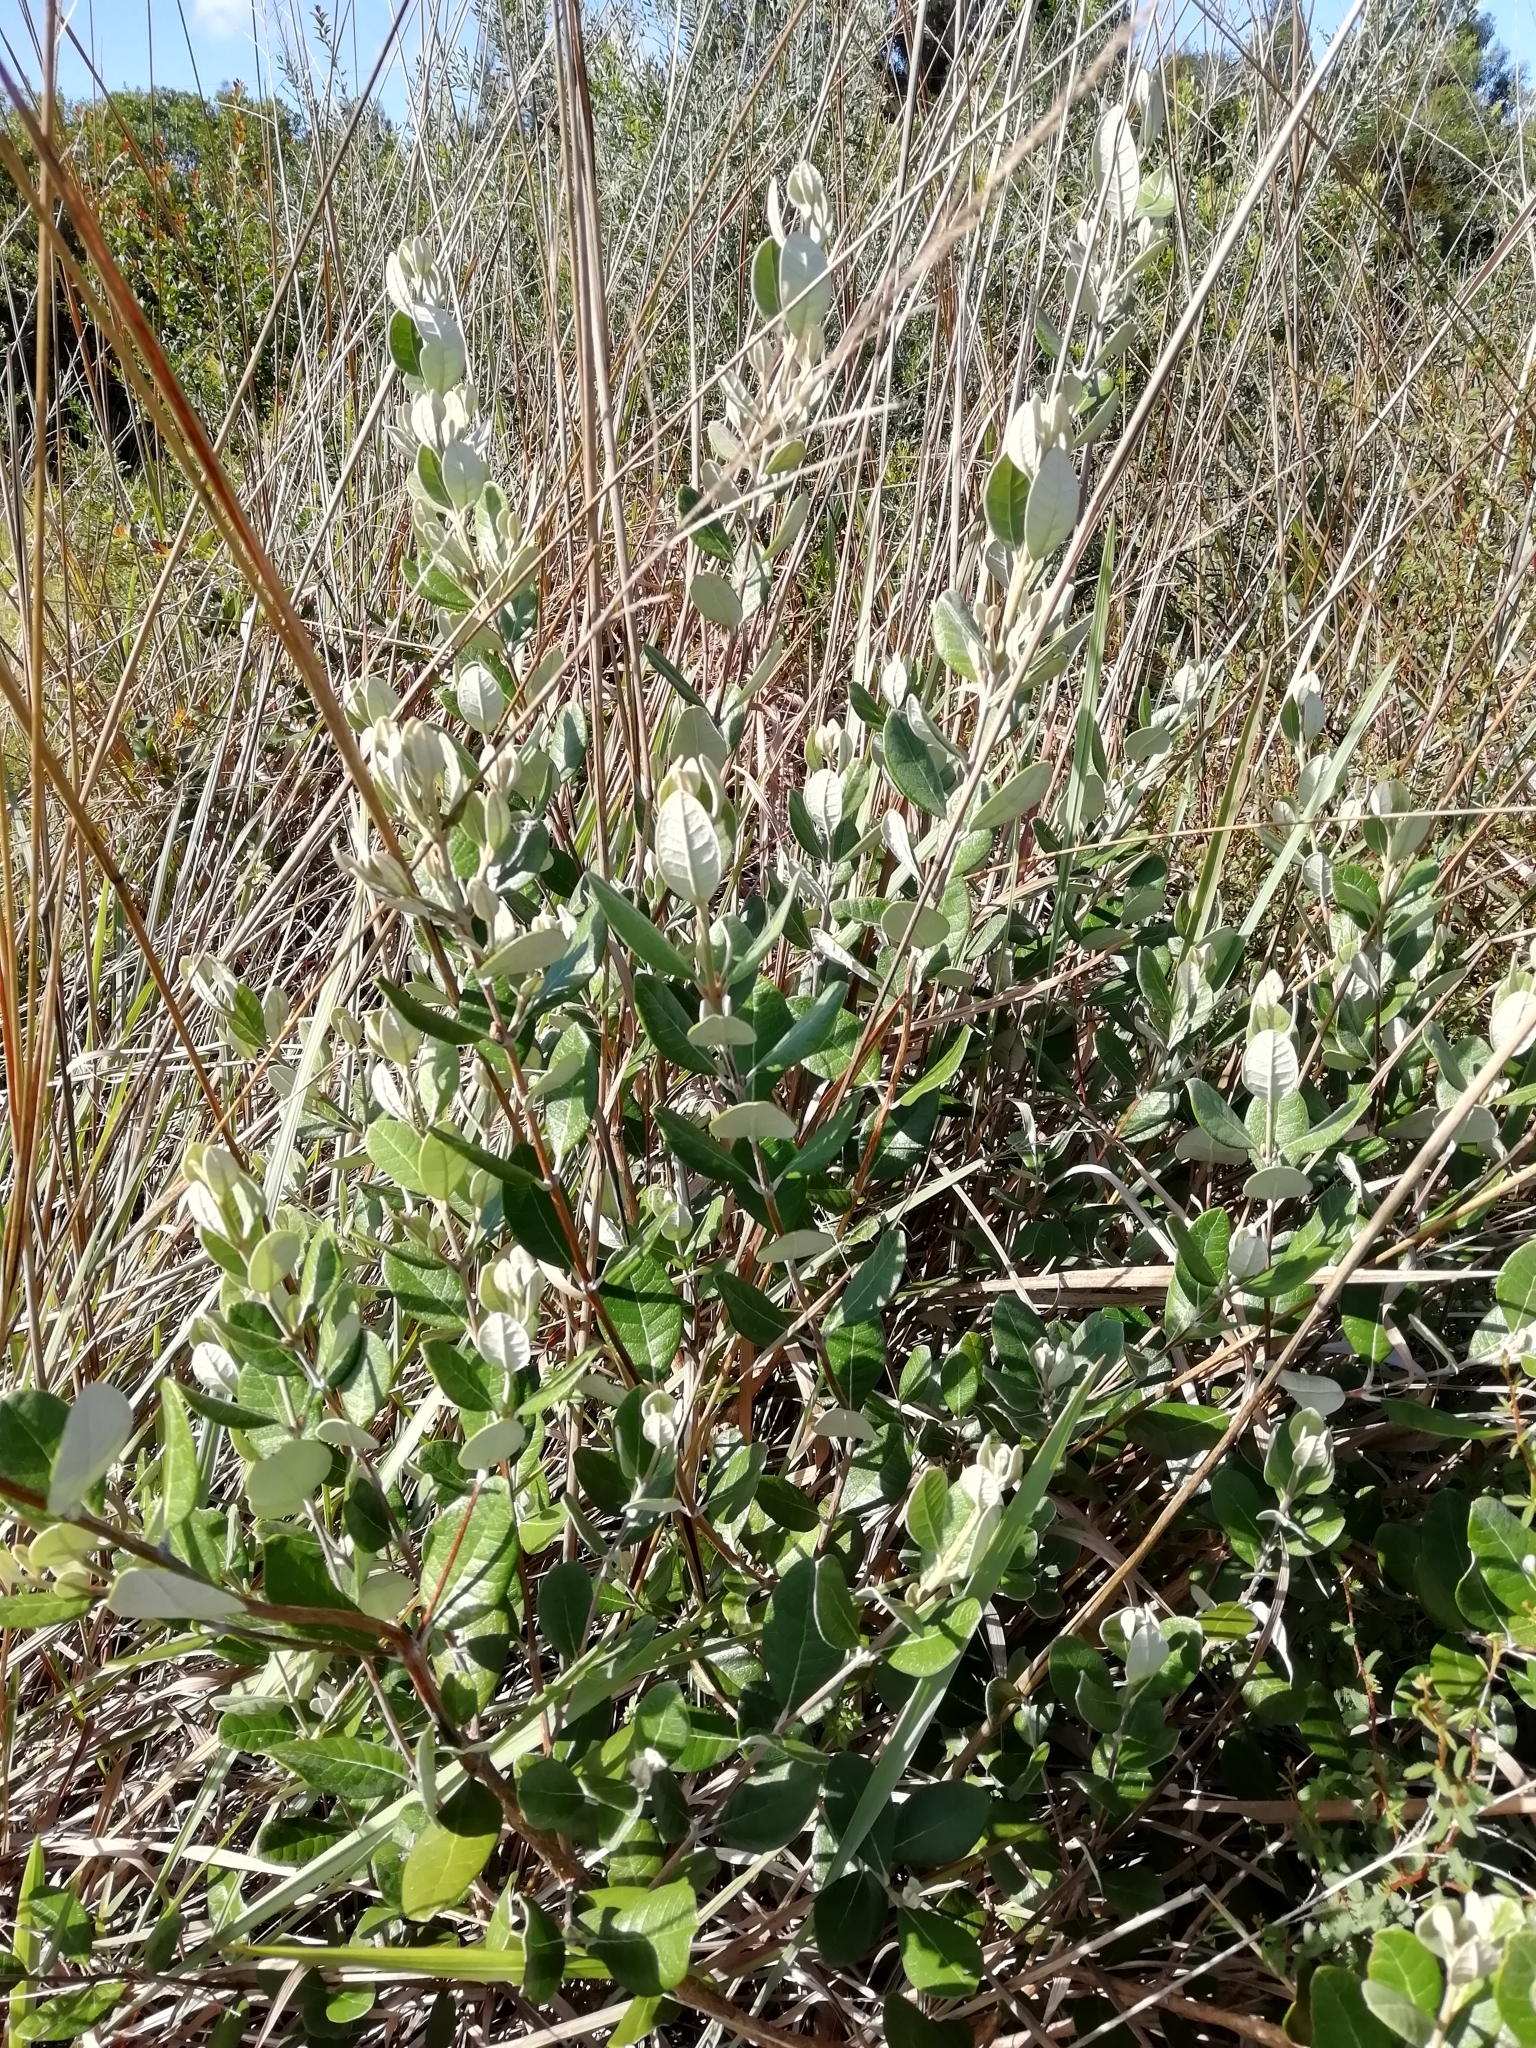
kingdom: Plantae
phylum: Tracheophyta
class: Magnoliopsida
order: Myrtales
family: Myrtaceae
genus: Feijoa
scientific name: Feijoa sellowiana
